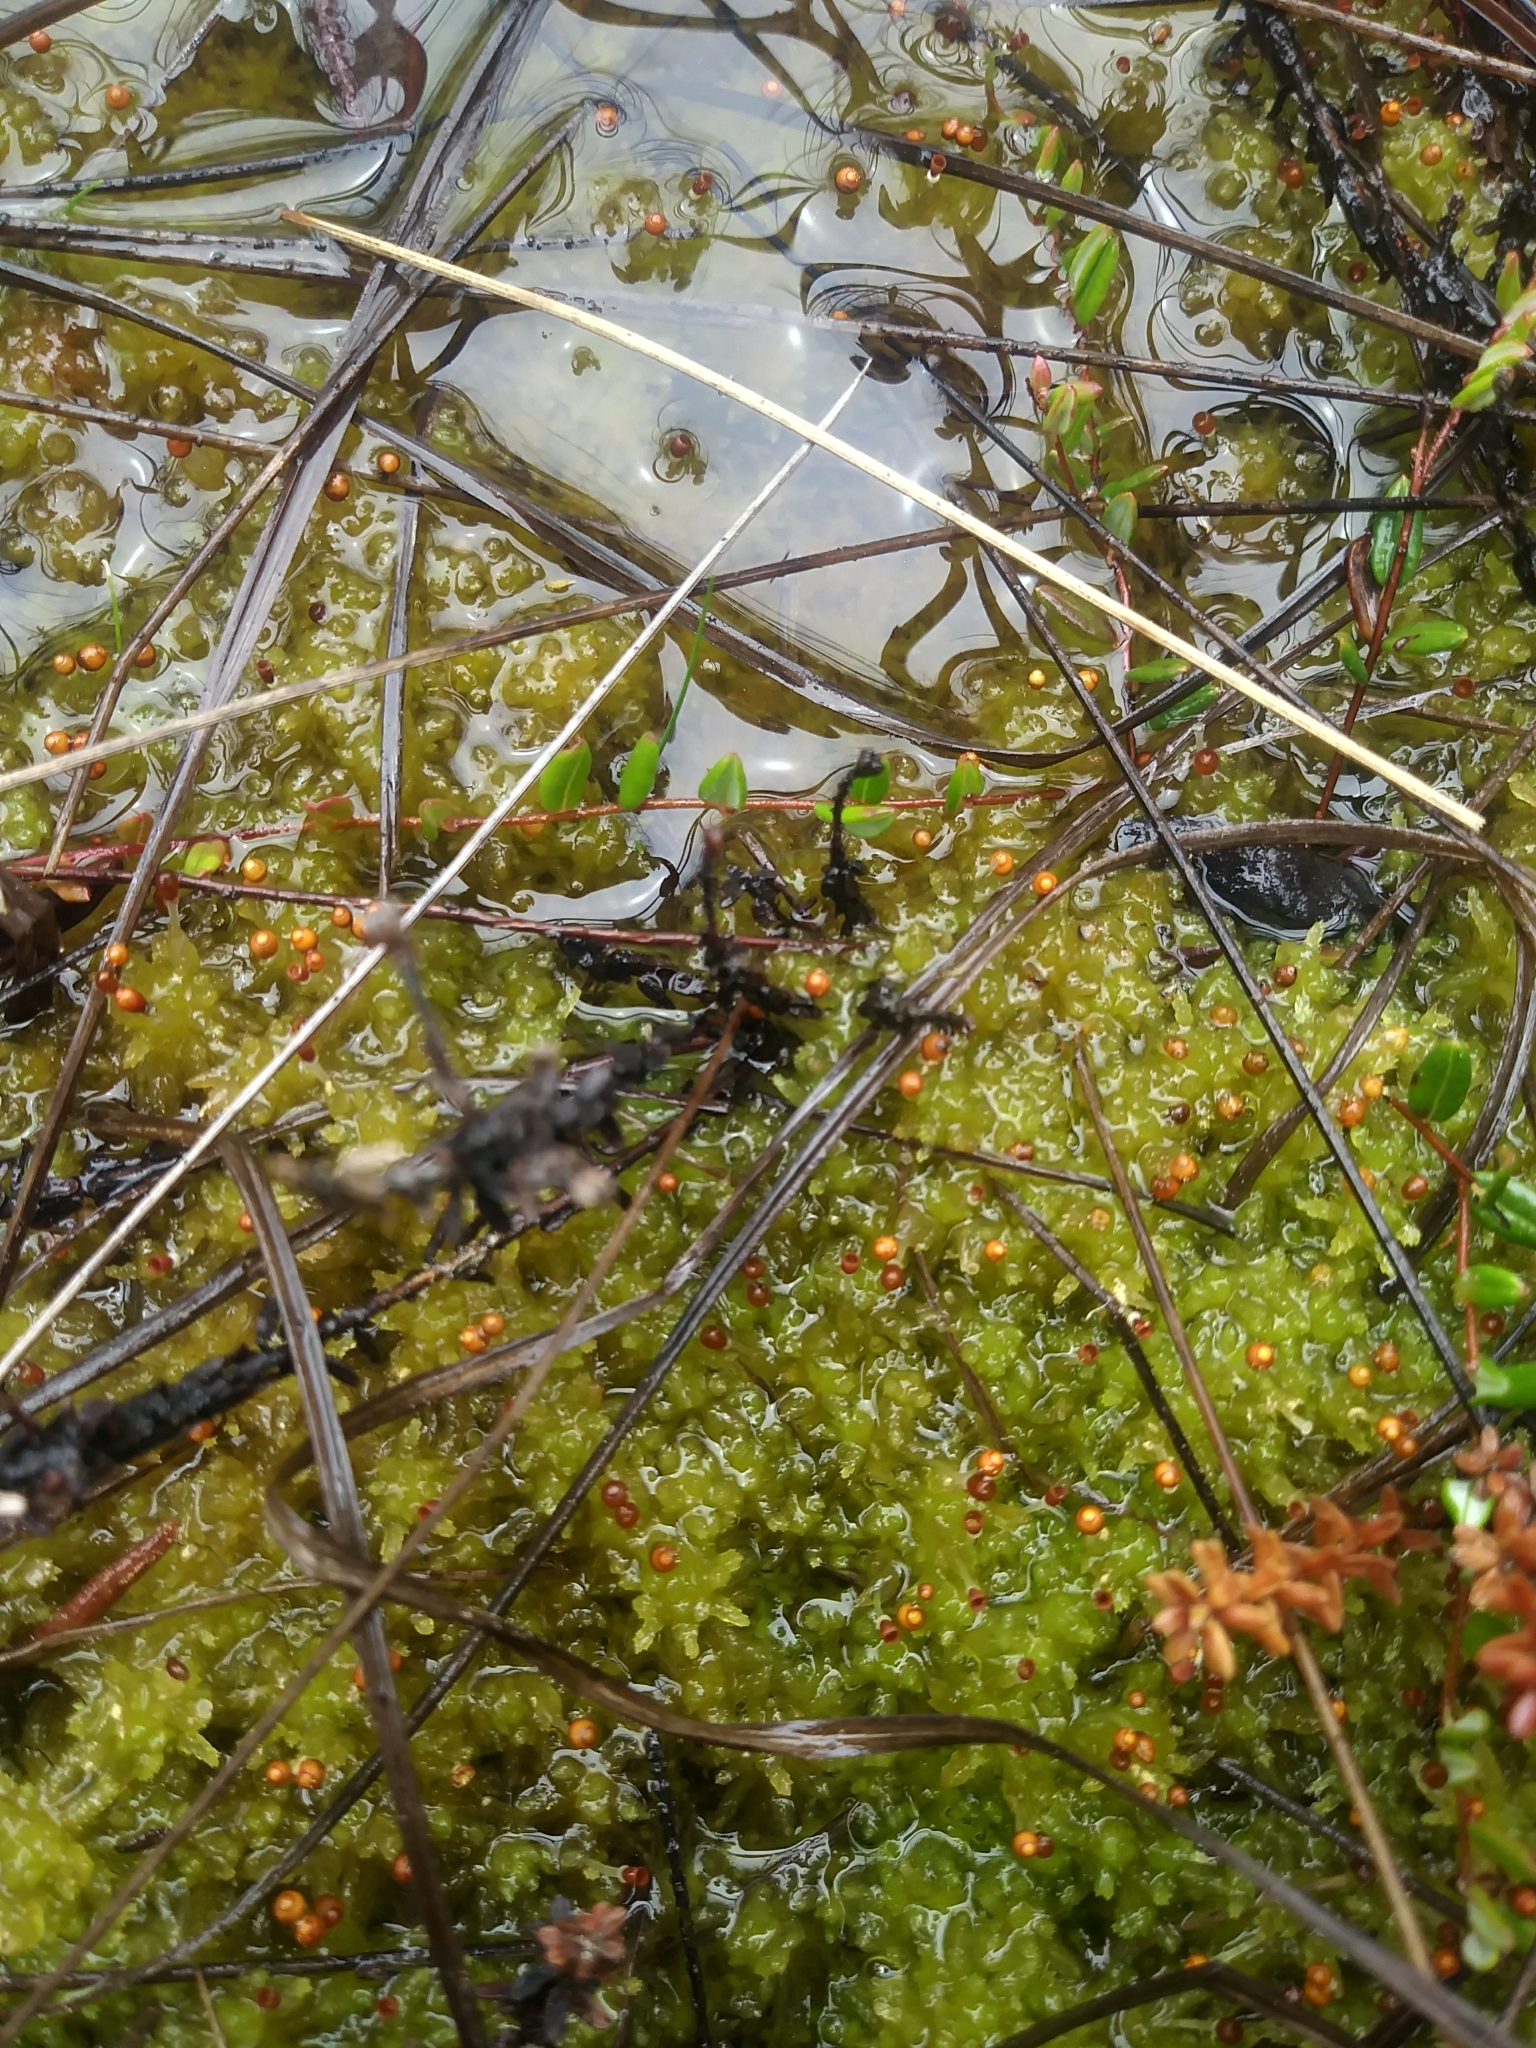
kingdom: Plantae
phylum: Bryophyta
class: Sphagnopsida
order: Sphagnales
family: Sphagnaceae
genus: Sphagnum
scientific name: Sphagnum tenellum
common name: Soft bog-moss
